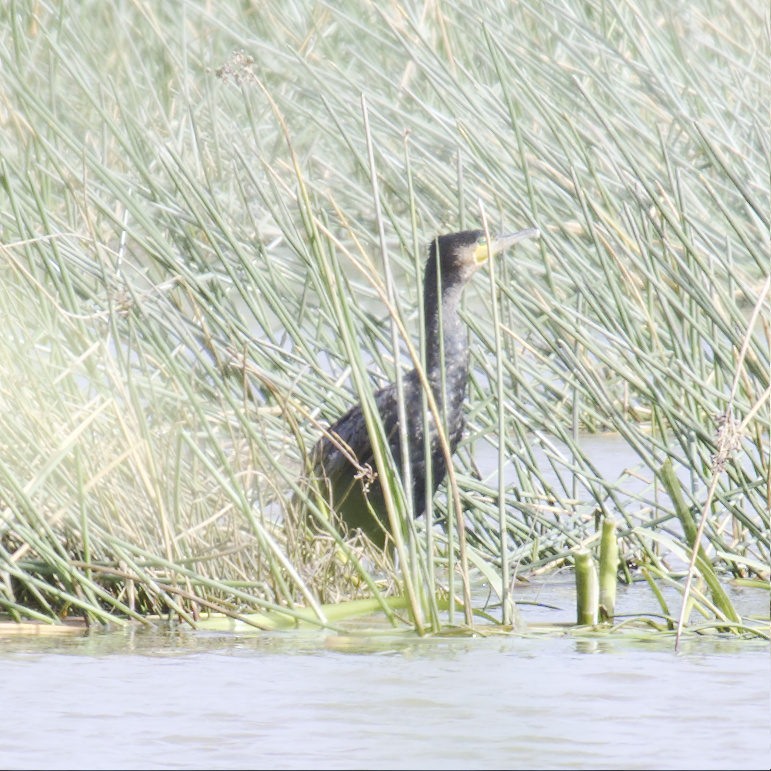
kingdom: Animalia
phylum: Chordata
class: Aves
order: Suliformes
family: Phalacrocoracidae
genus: Phalacrocorax
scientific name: Phalacrocorax carbo
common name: Great cormorant
